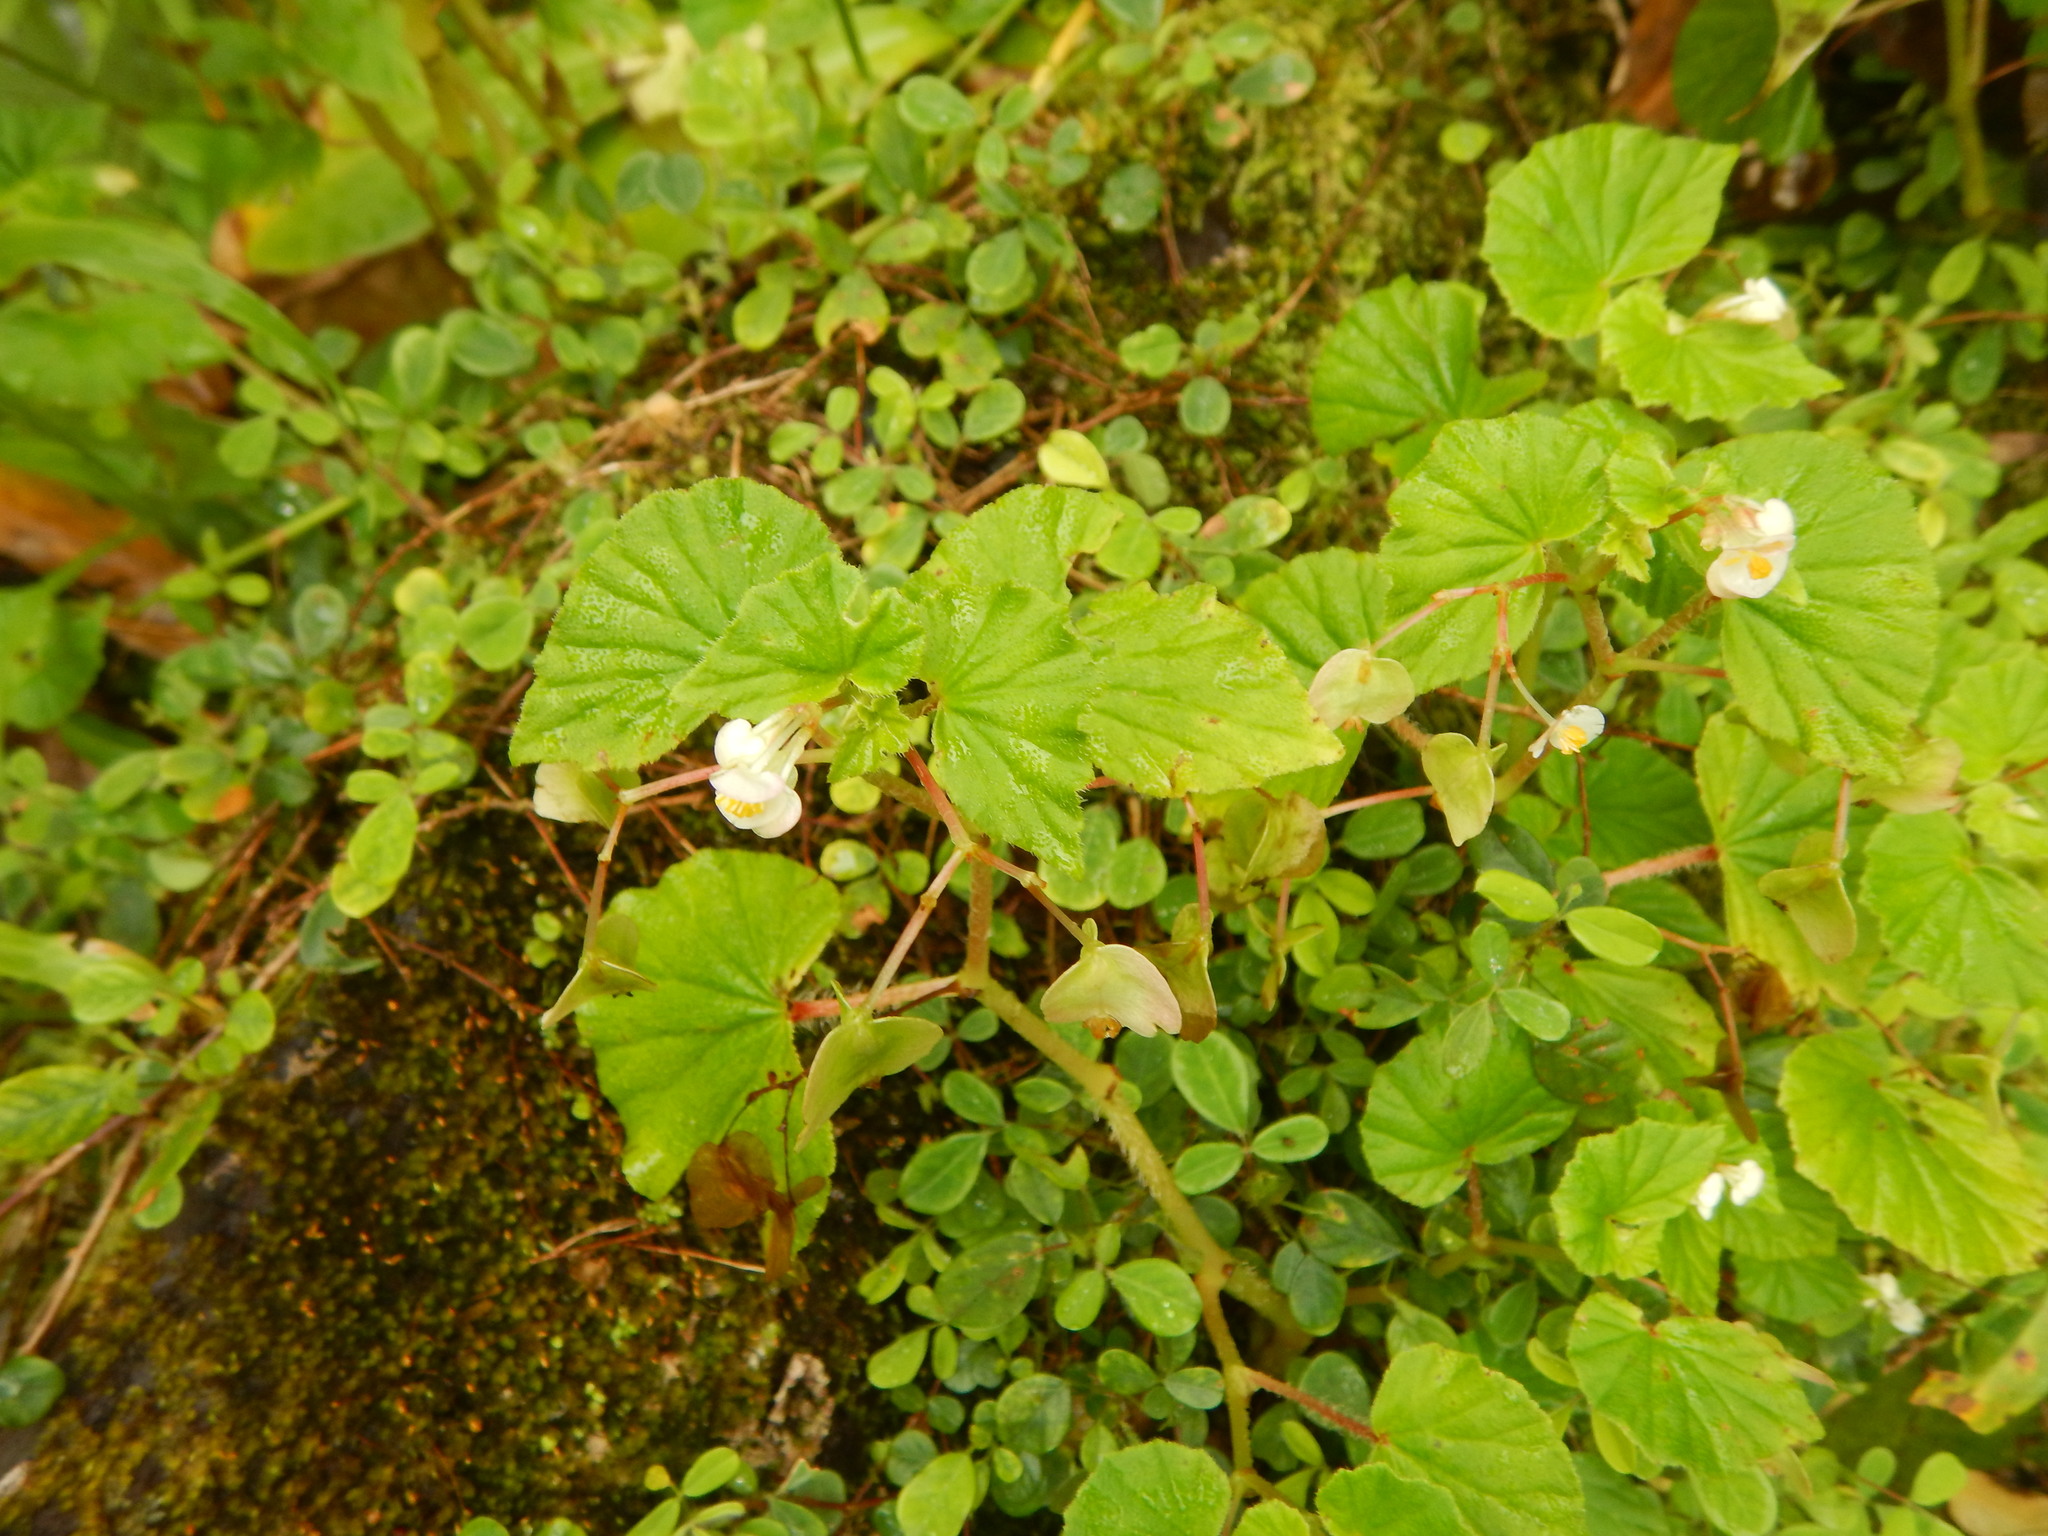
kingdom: Plantae
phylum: Tracheophyta
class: Magnoliopsida
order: Cucurbitales
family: Begoniaceae
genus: Begonia
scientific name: Begonia hirtella
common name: Brazilian begonia
